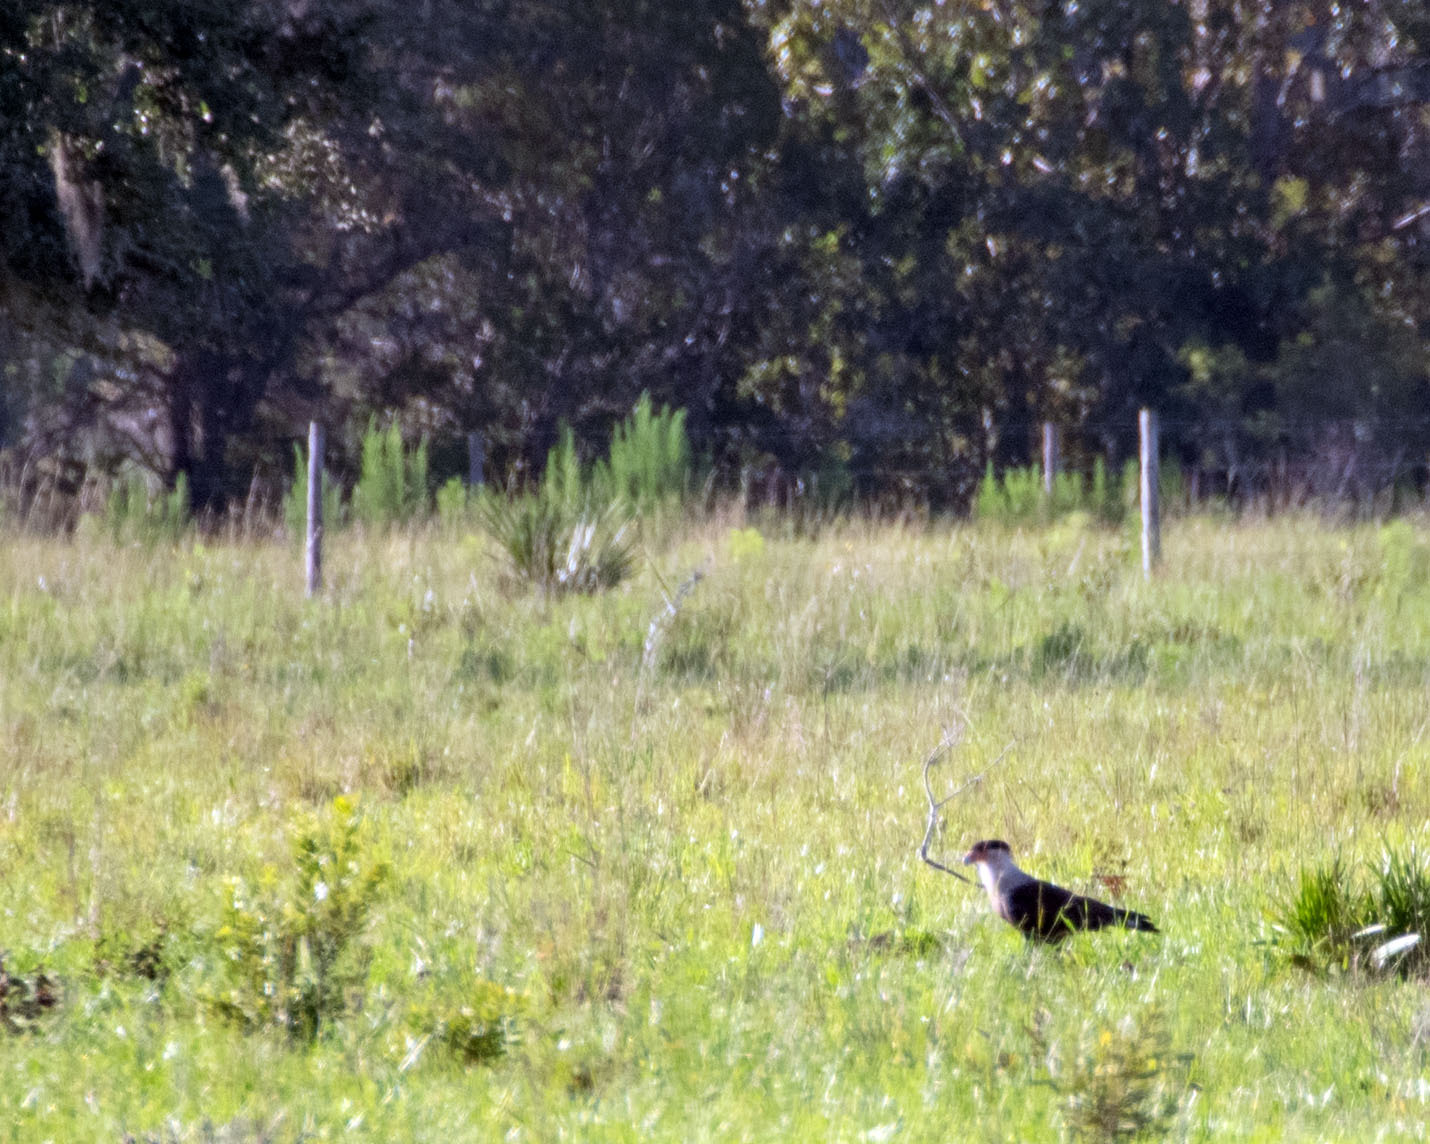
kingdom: Animalia
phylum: Chordata
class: Aves
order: Falconiformes
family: Falconidae
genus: Caracara
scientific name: Caracara plancus
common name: Southern caracara
